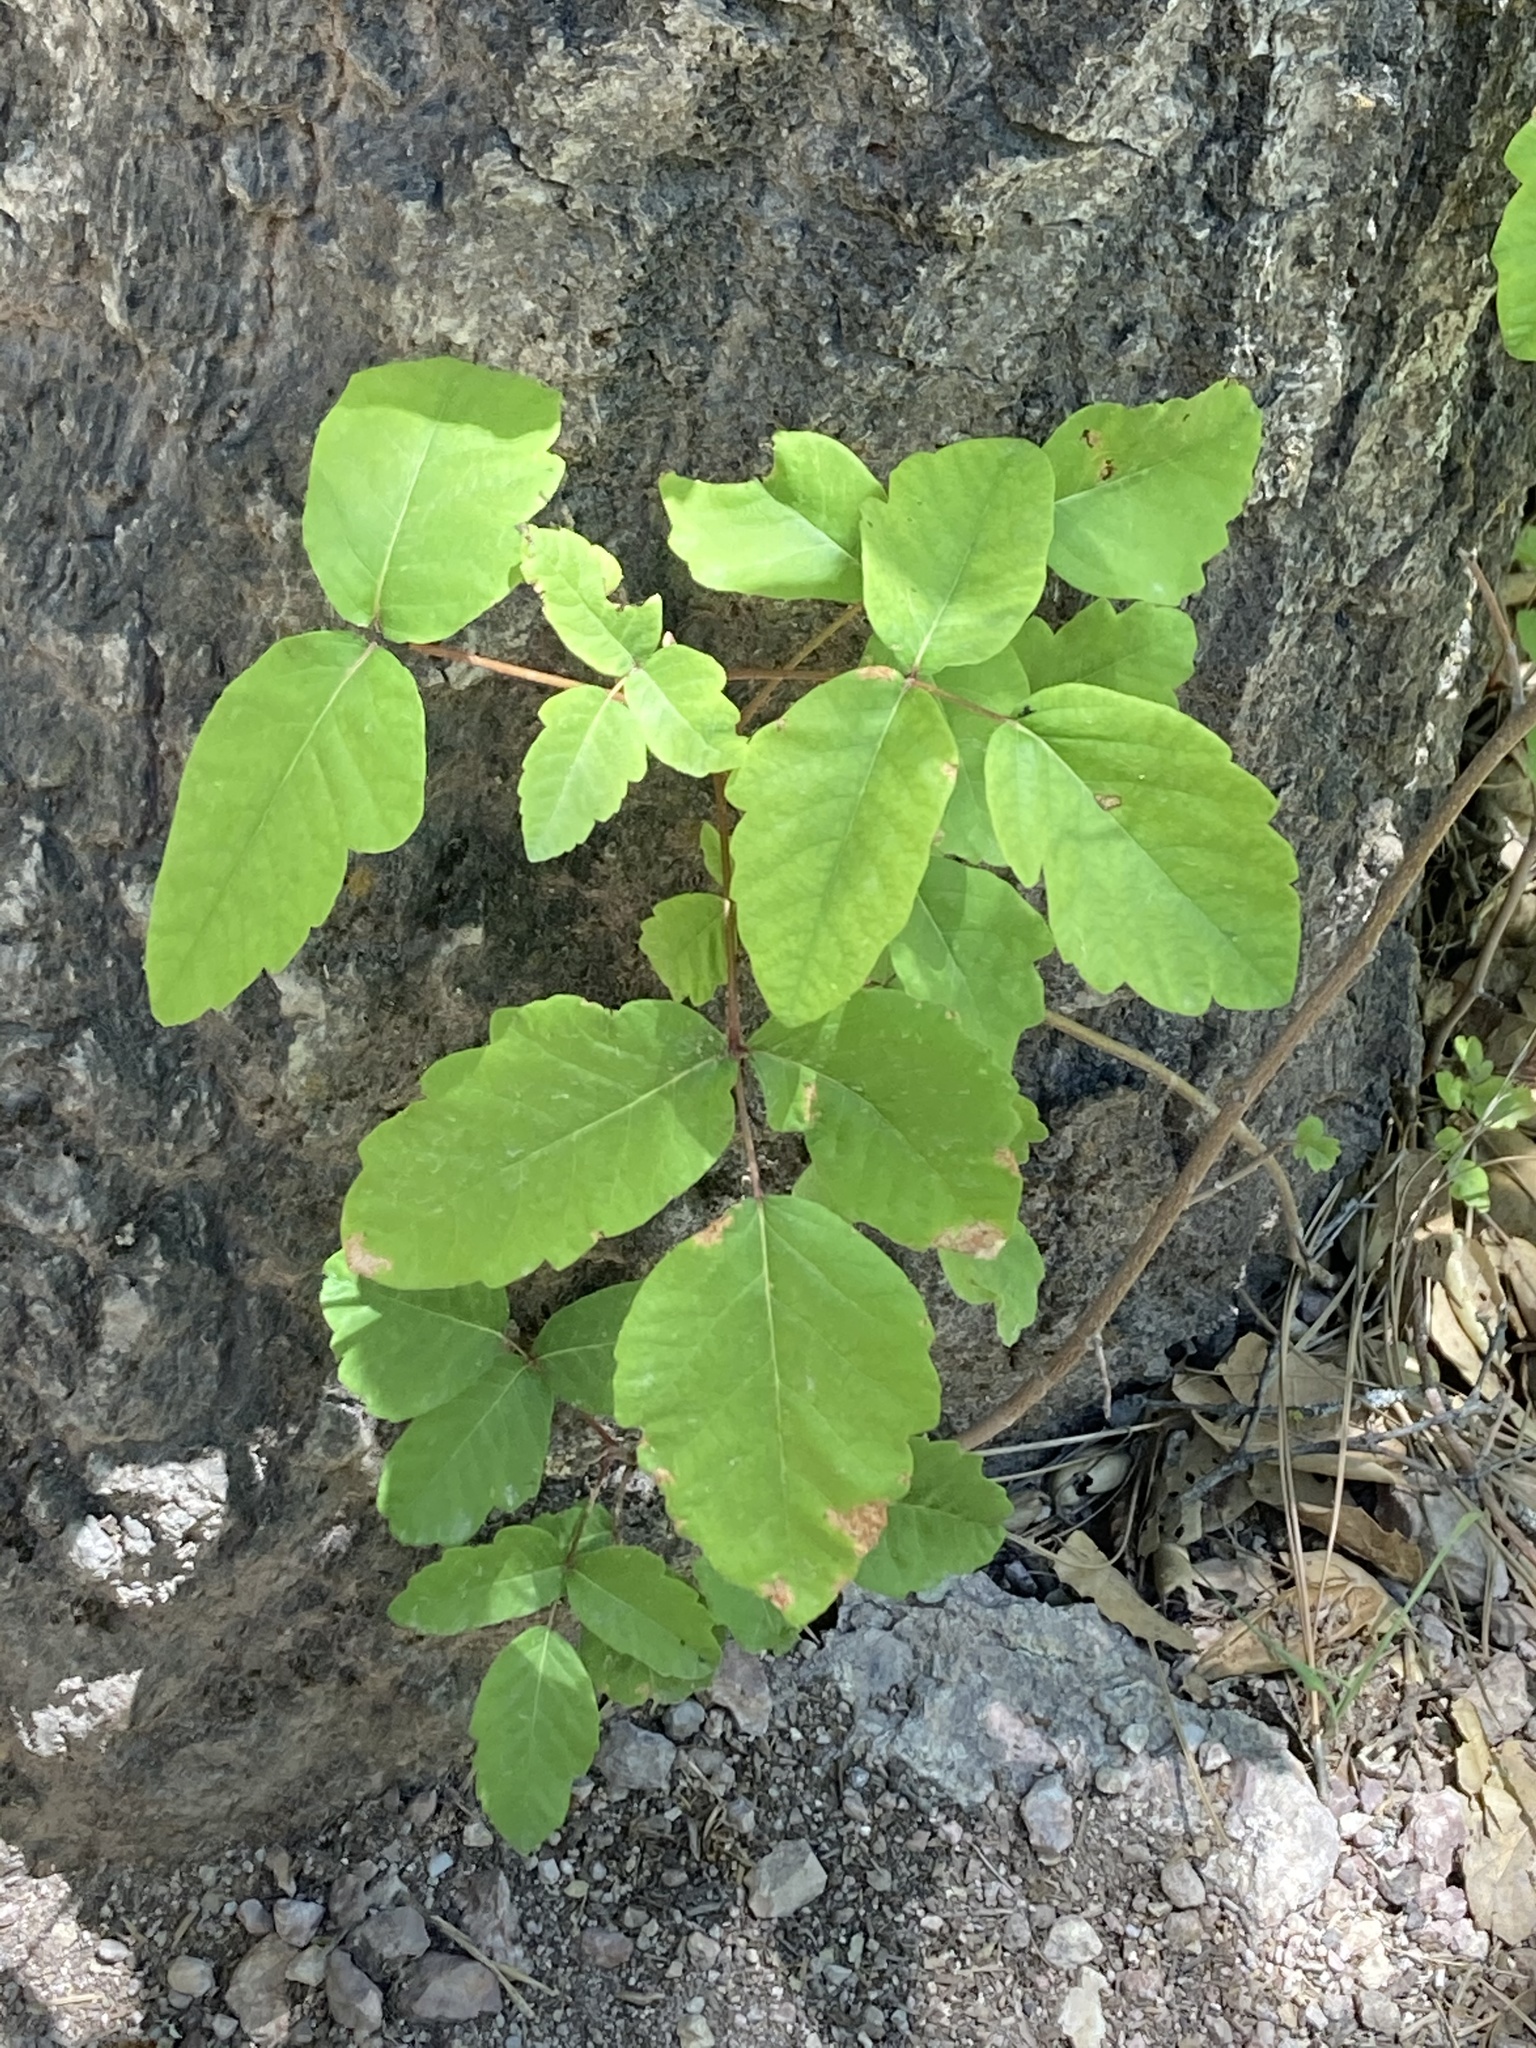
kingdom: Plantae
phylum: Tracheophyta
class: Magnoliopsida
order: Sapindales
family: Anacardiaceae
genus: Toxicodendron
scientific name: Toxicodendron diversilobum
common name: Pacific poison-oak
